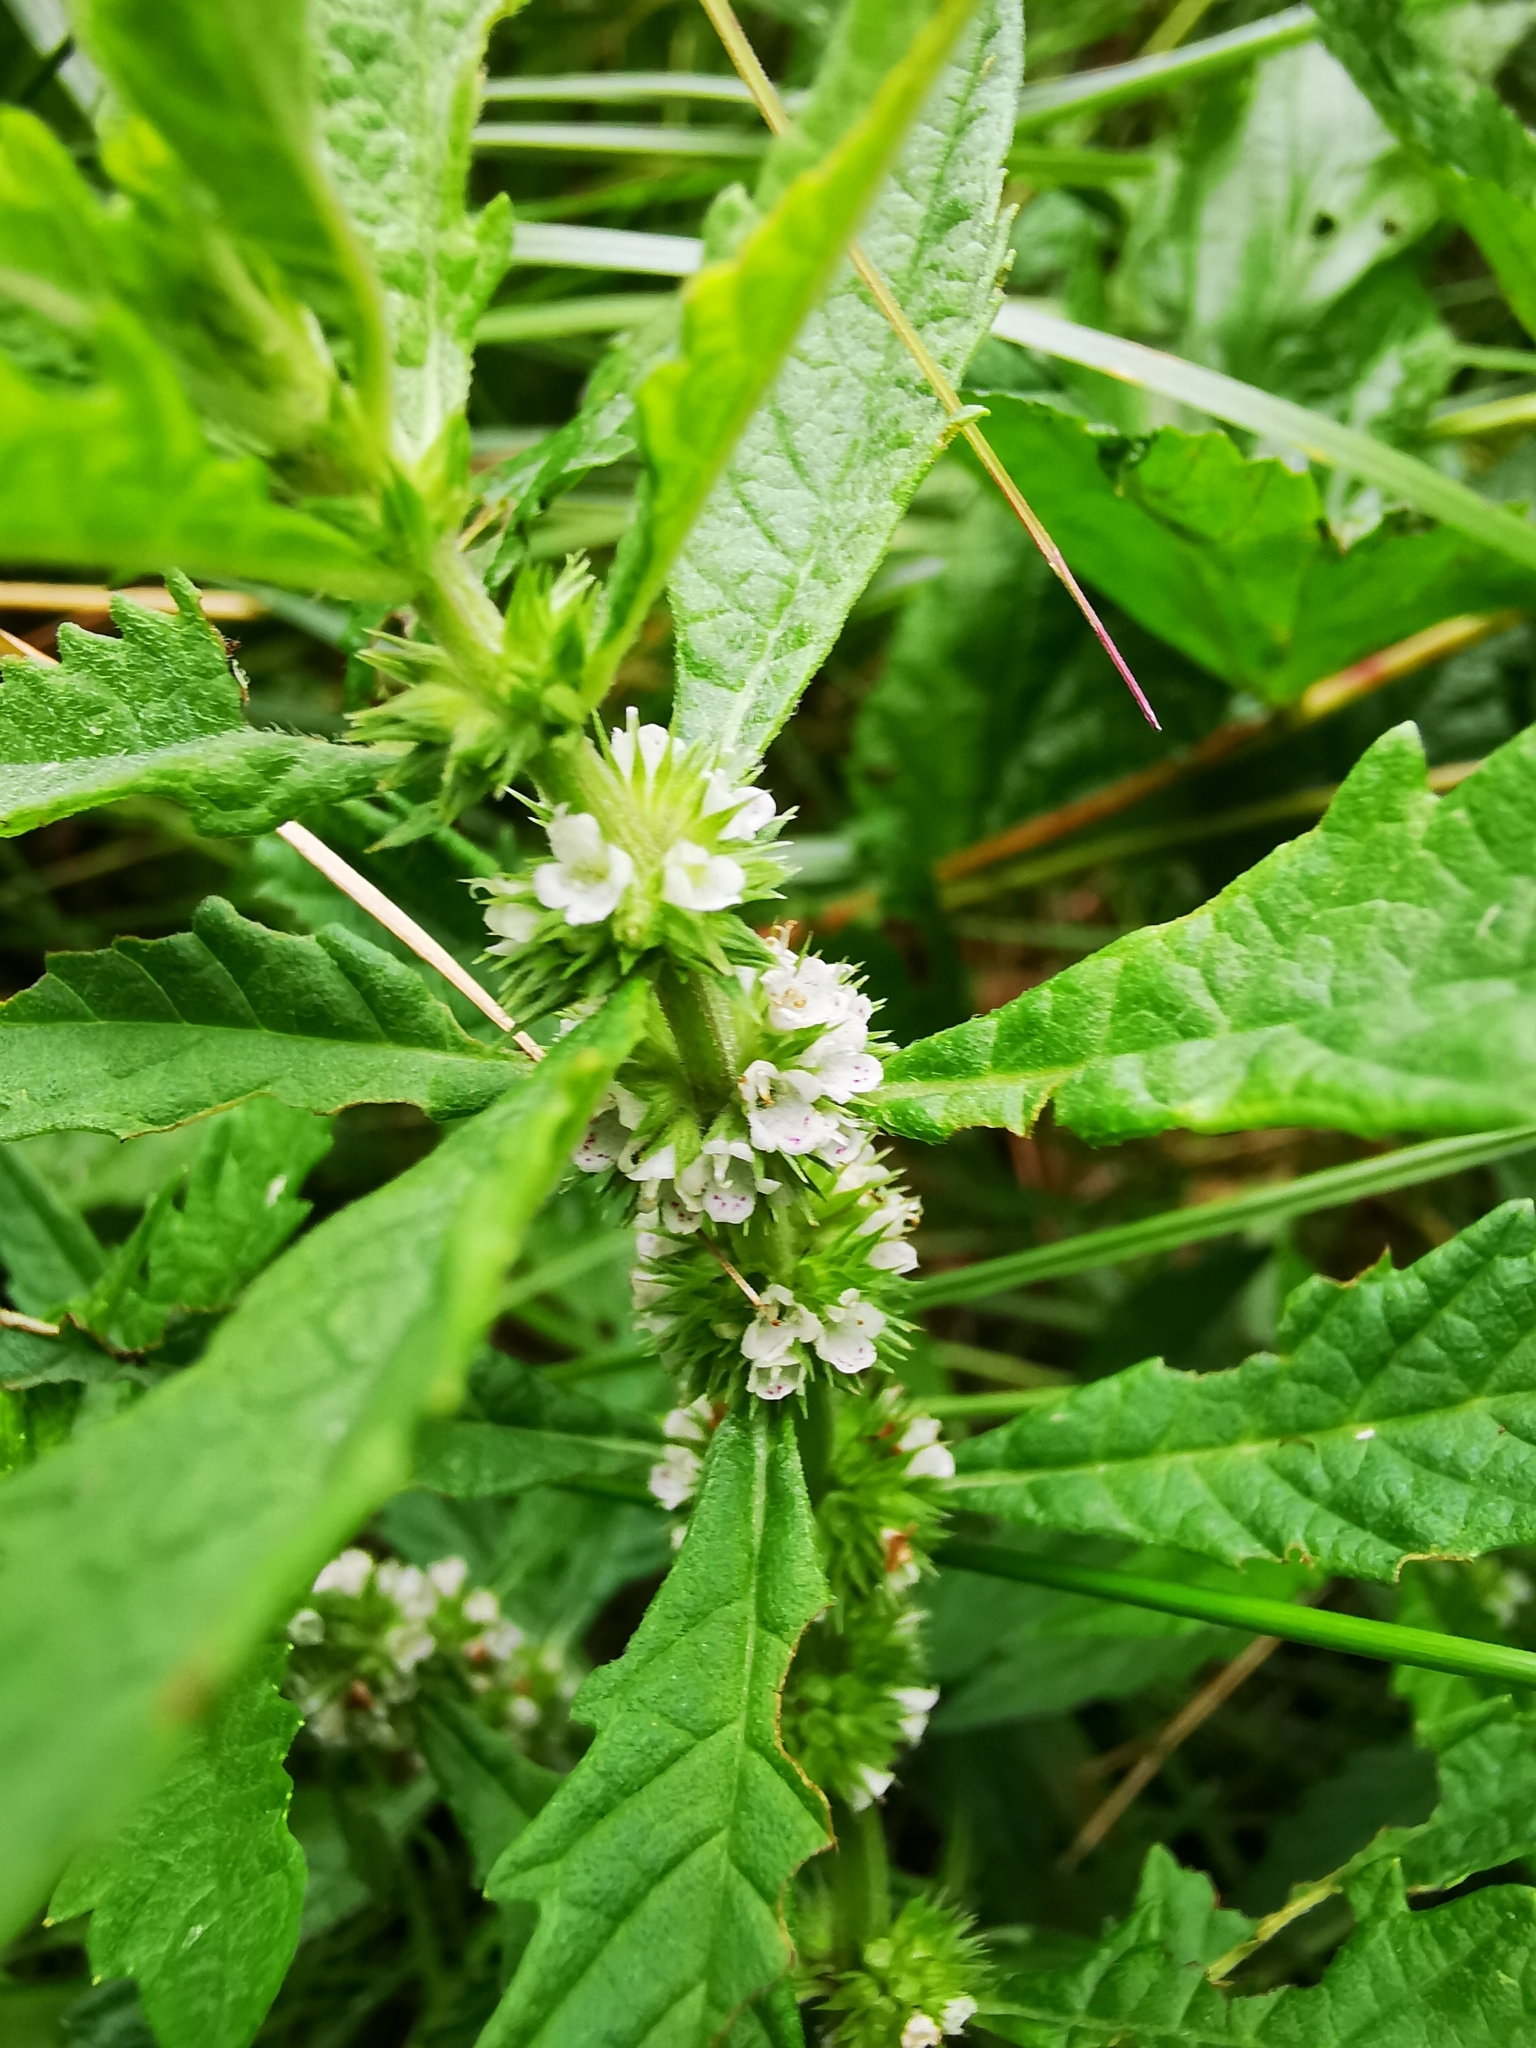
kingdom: Plantae
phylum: Tracheophyta
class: Magnoliopsida
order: Lamiales
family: Lamiaceae
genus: Lycopus
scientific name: Lycopus europaeus
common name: European bugleweed
